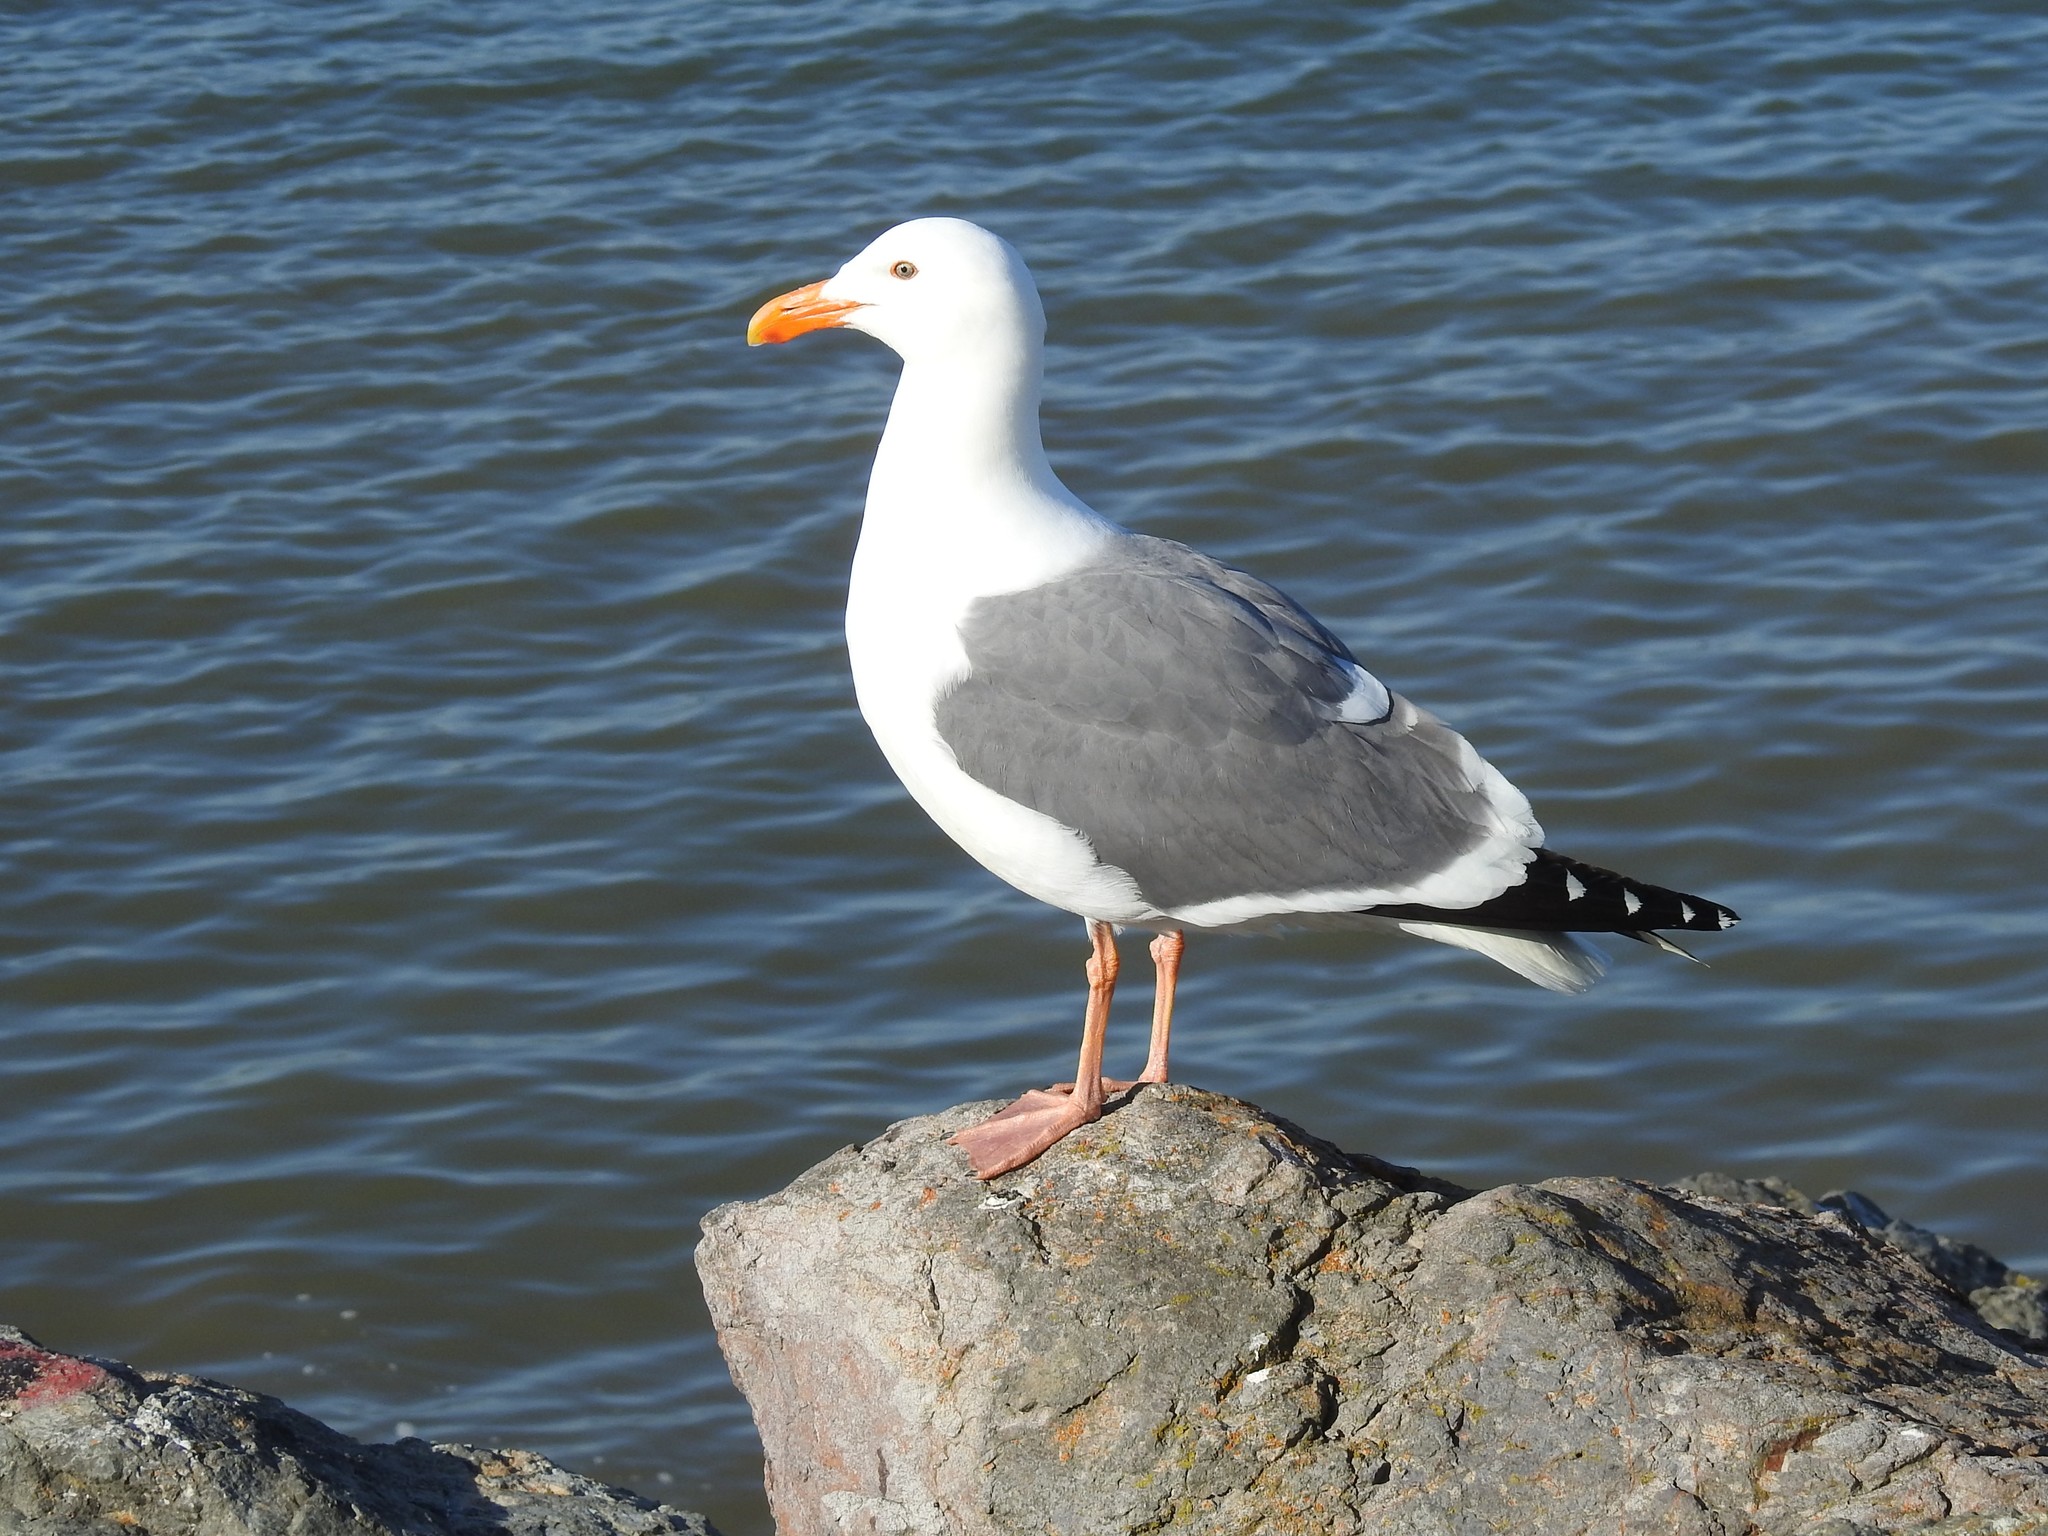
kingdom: Animalia
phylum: Chordata
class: Aves
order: Charadriiformes
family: Laridae
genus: Larus
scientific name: Larus occidentalis
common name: Western gull
